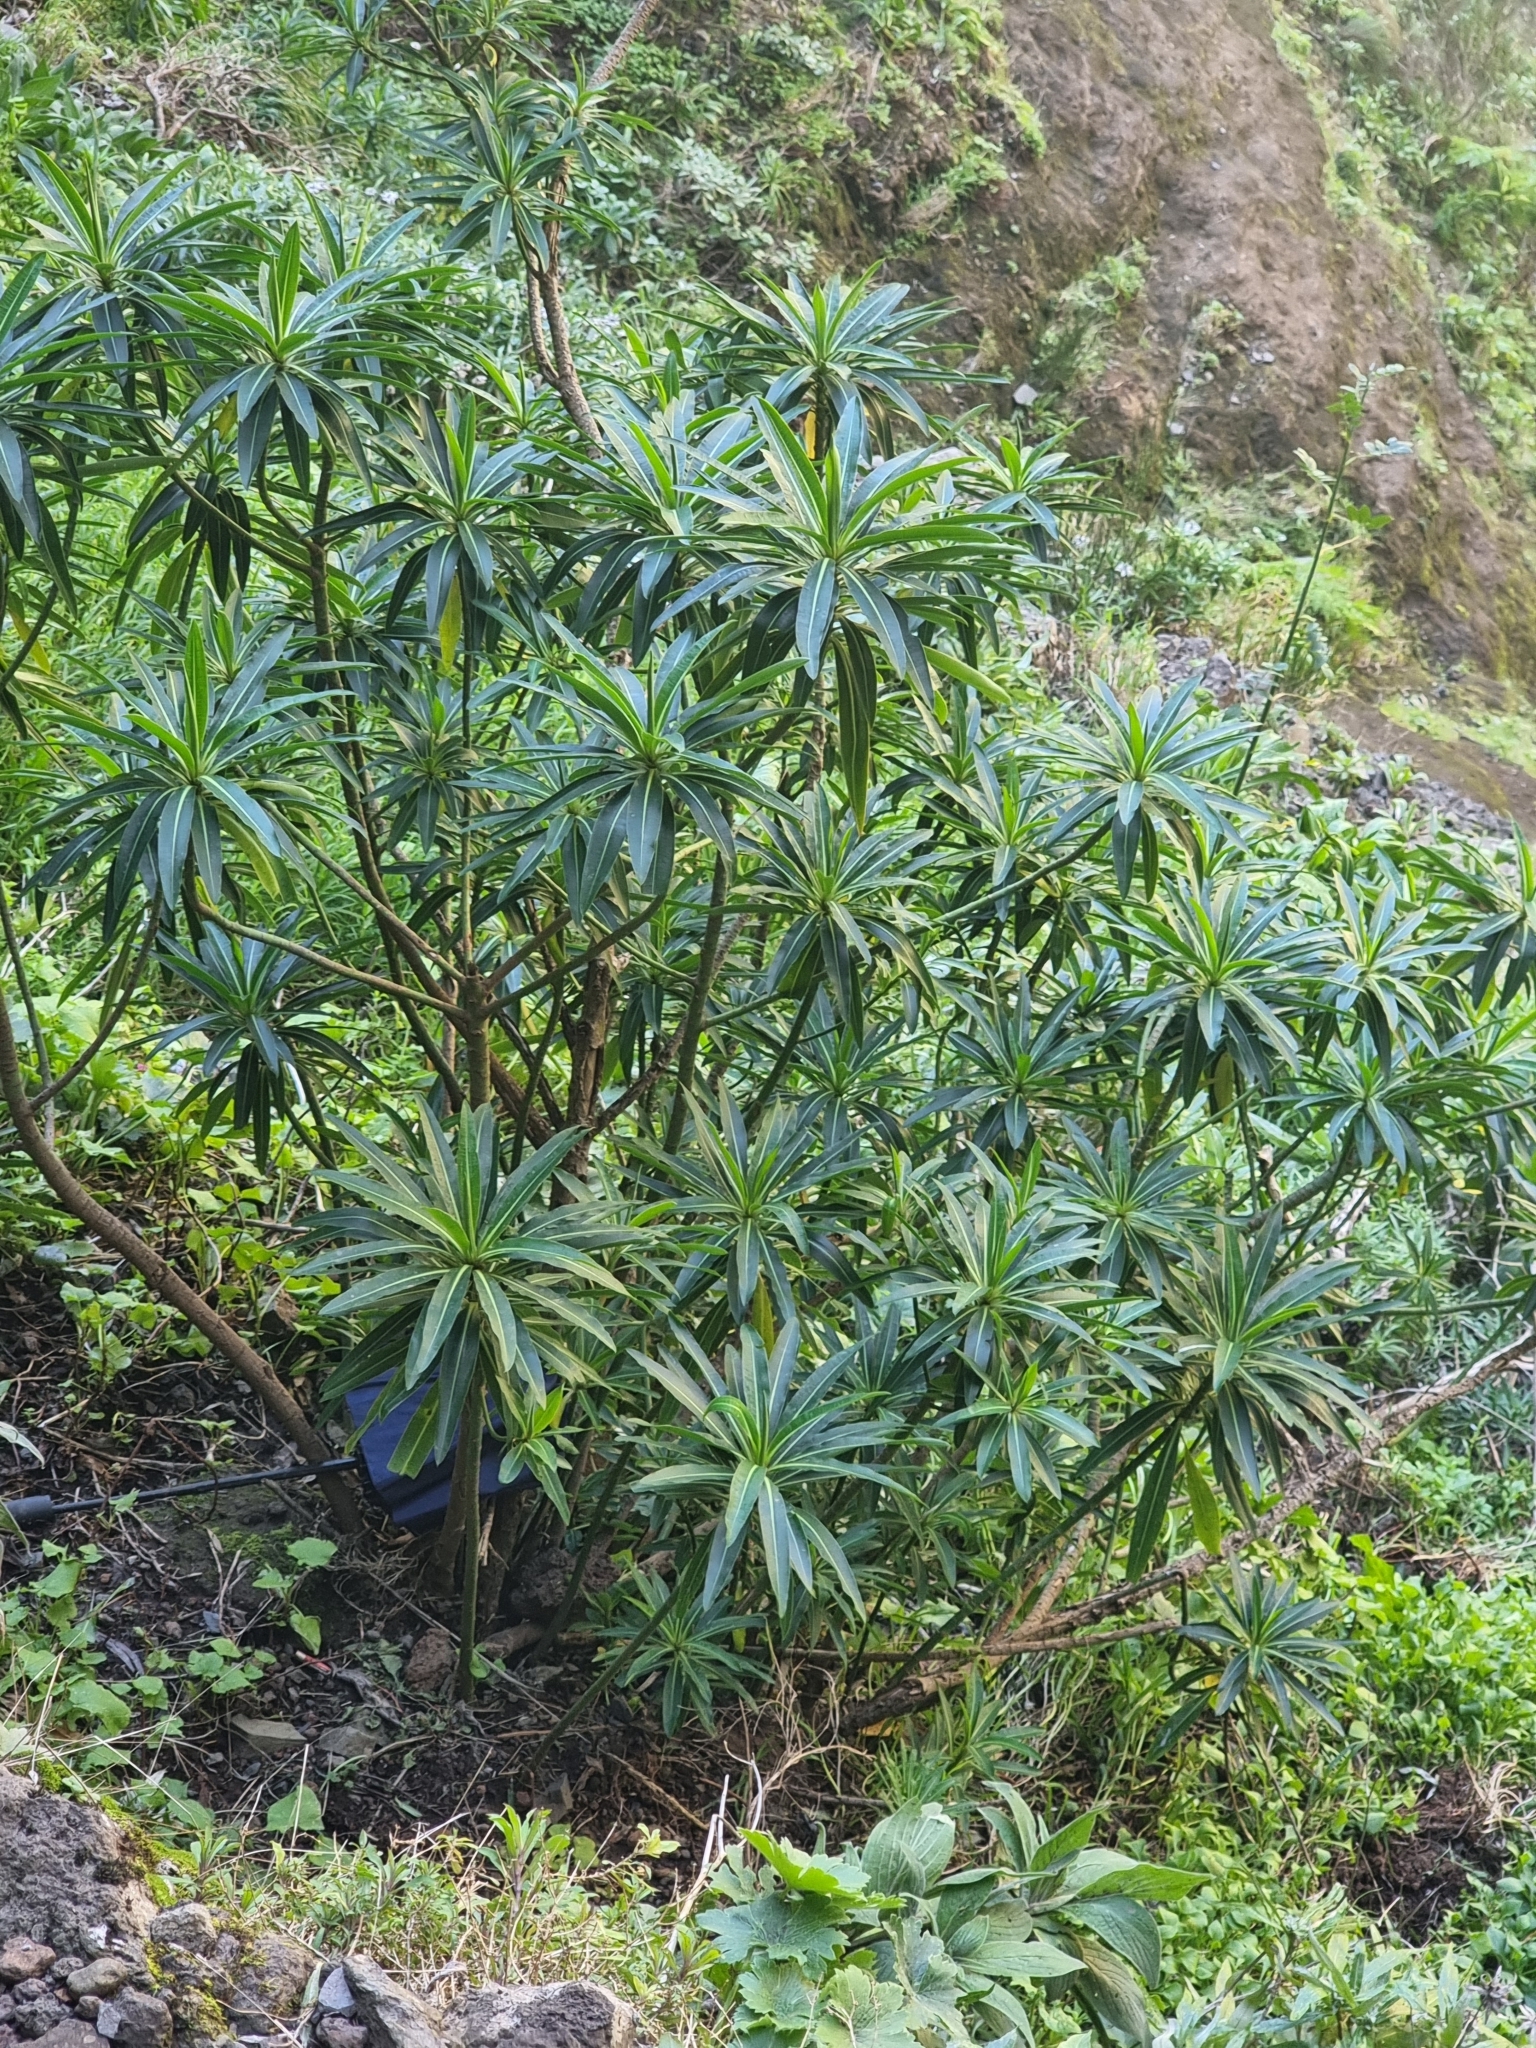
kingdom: Plantae
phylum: Tracheophyta
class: Magnoliopsida
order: Malpighiales
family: Euphorbiaceae
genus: Euphorbia
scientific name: Euphorbia mellifera
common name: Canary spurge
